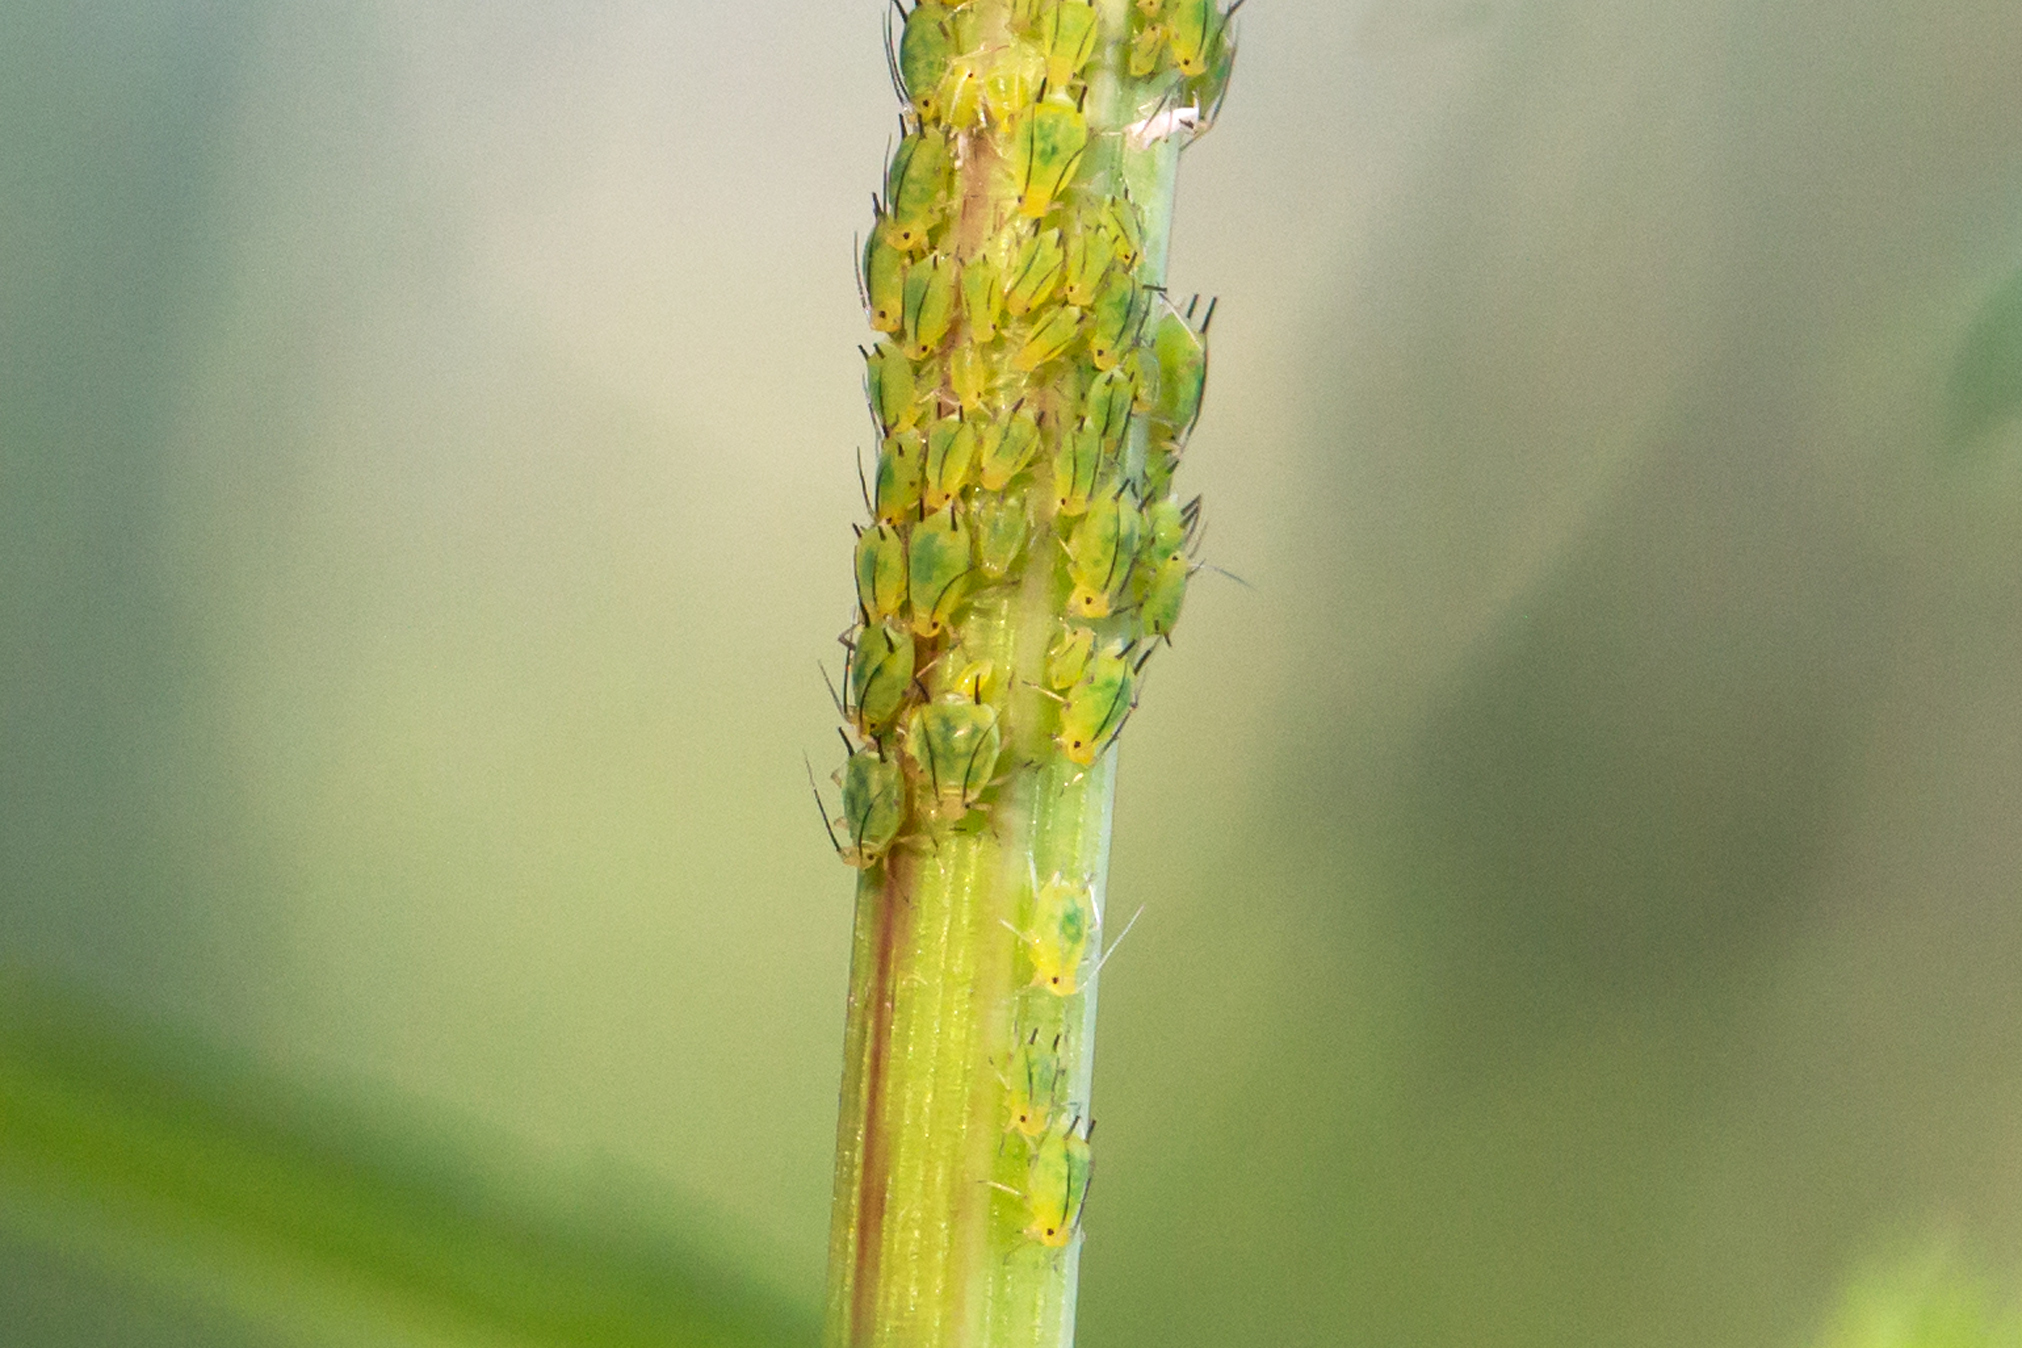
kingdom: Animalia
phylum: Arthropoda
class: Insecta
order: Hemiptera
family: Aphididae
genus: Aphis
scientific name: Aphis coreopsidis
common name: Aphid
